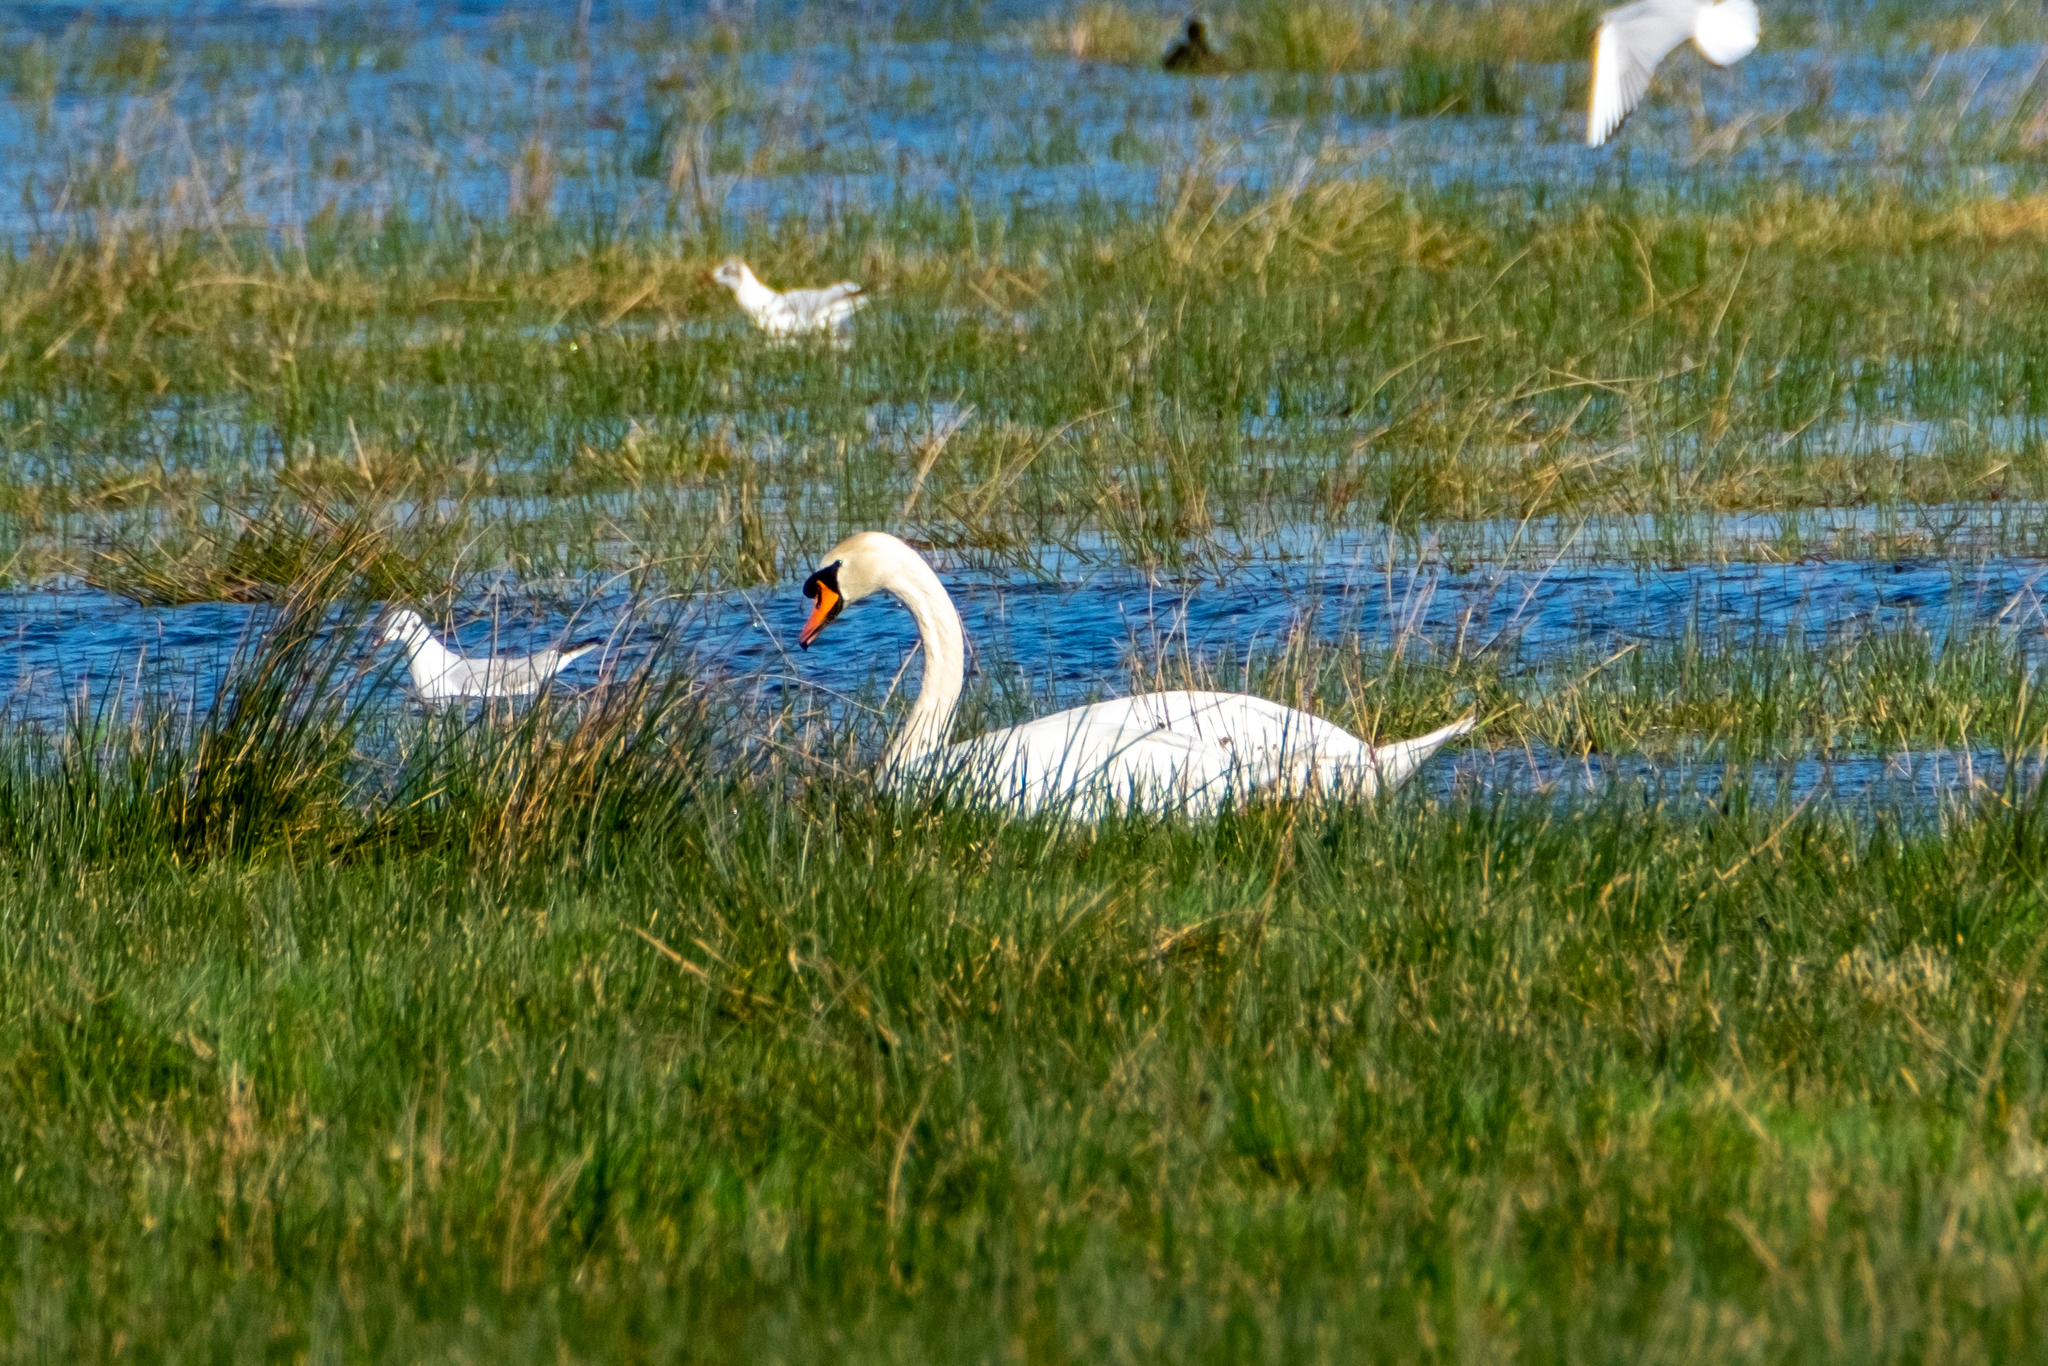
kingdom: Animalia
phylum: Chordata
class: Aves
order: Anseriformes
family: Anatidae
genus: Cygnus
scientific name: Cygnus olor
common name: Mute swan
